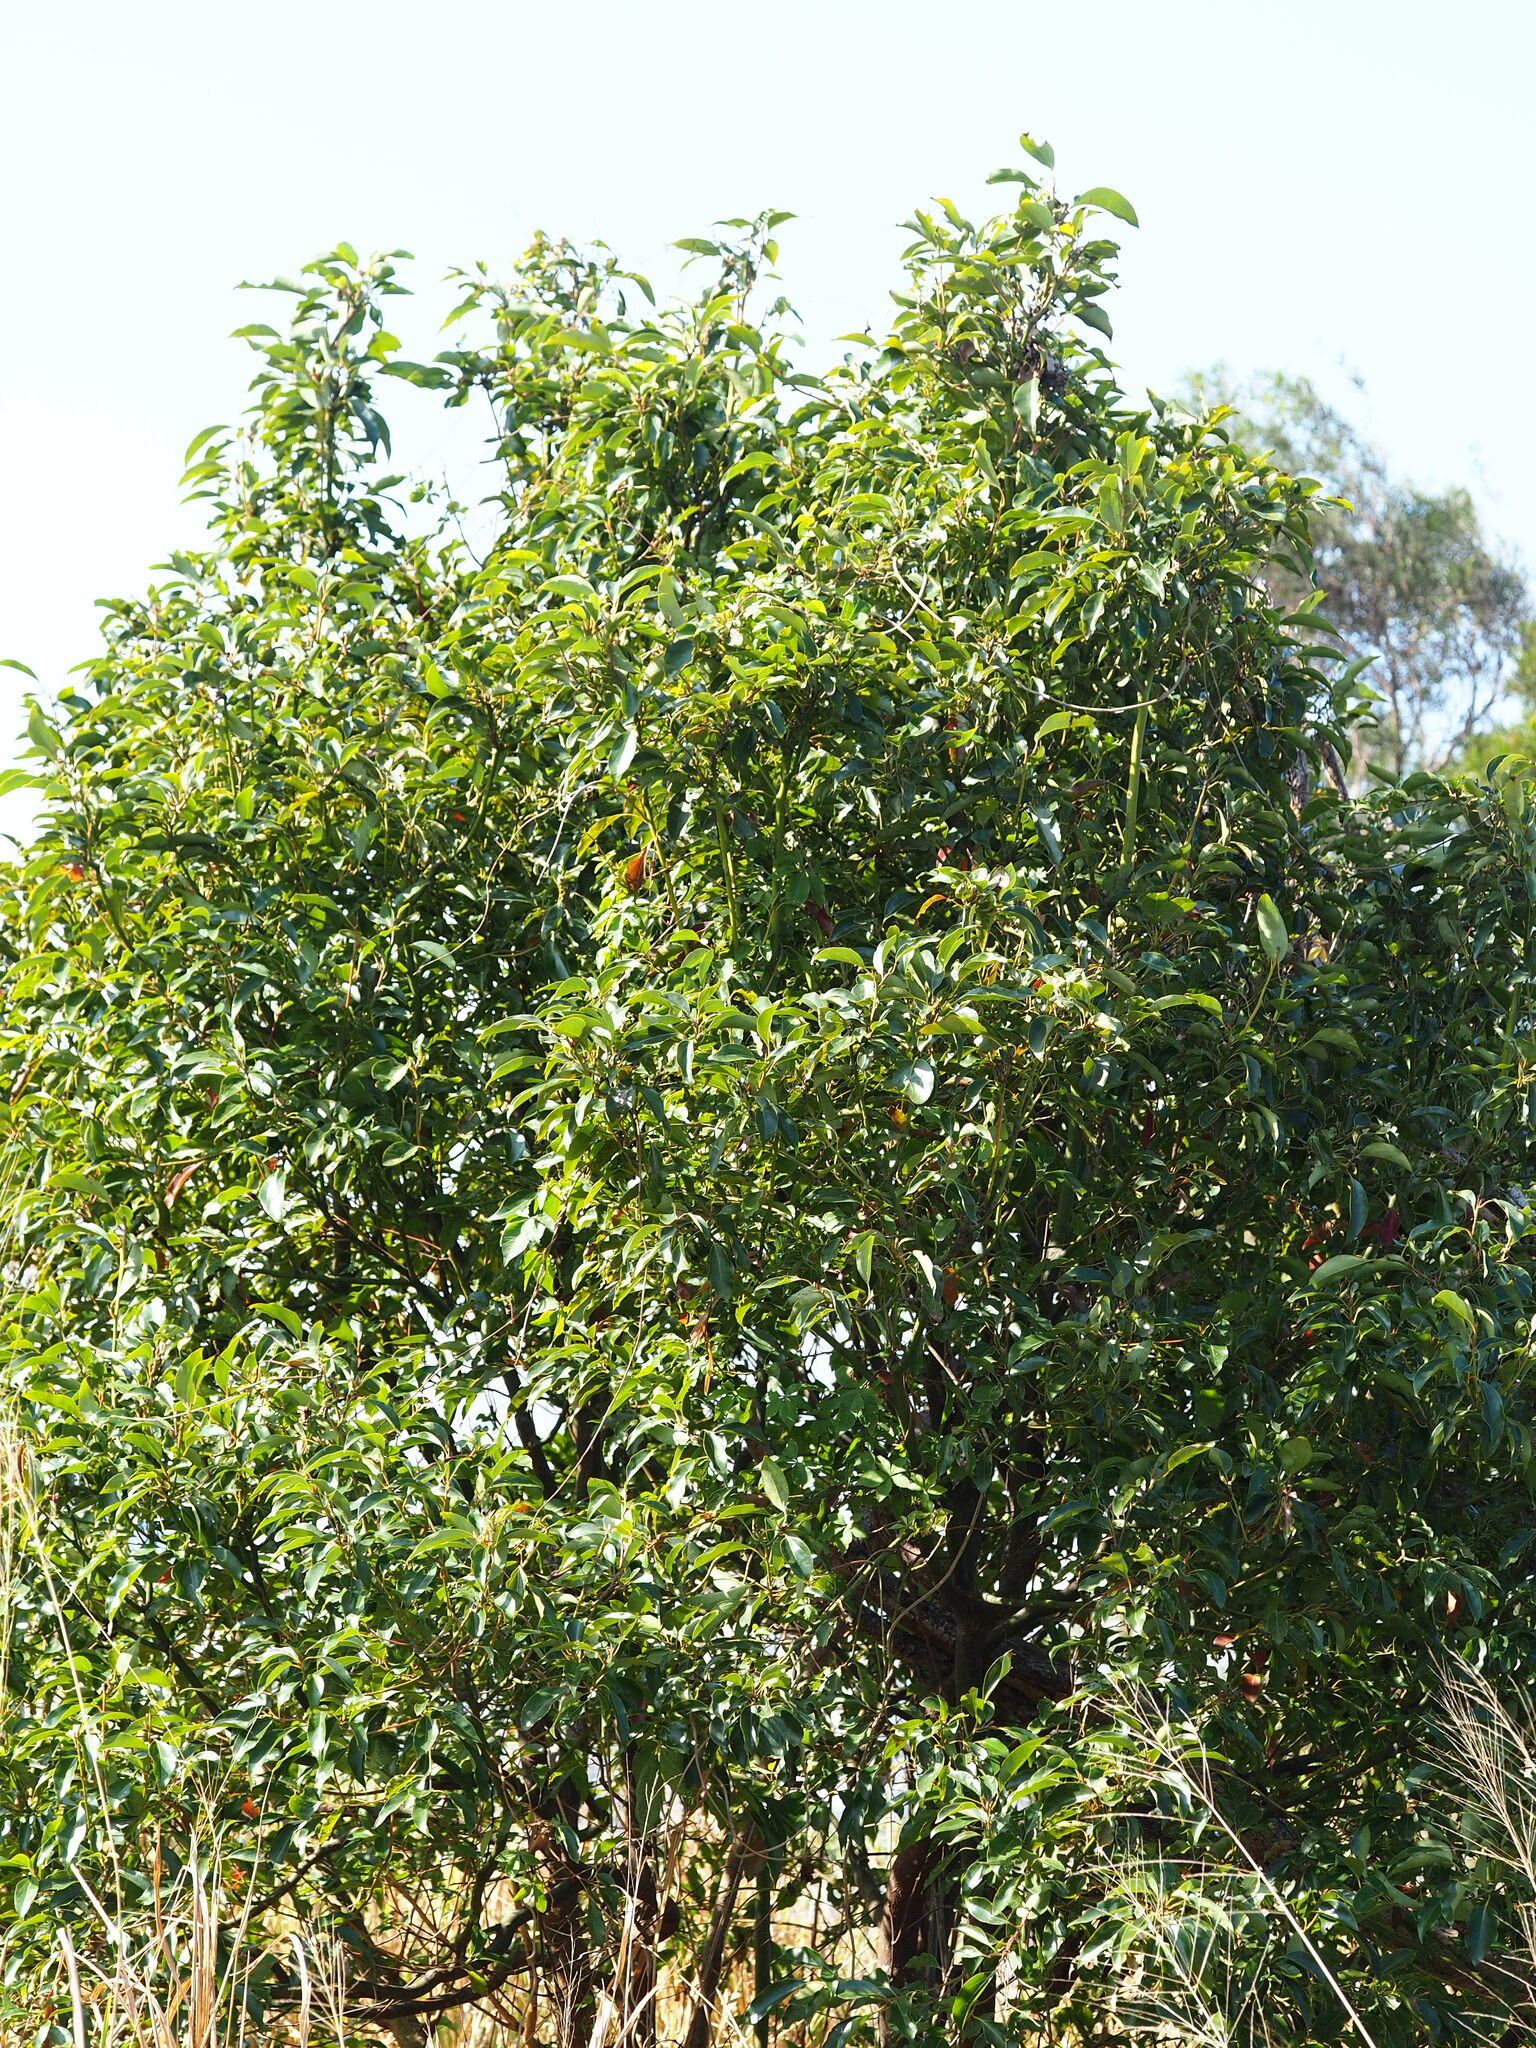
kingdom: Plantae
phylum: Tracheophyta
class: Magnoliopsida
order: Laurales
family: Lauraceae
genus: Cinnamomum
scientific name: Cinnamomum camphora
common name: Camphortree
